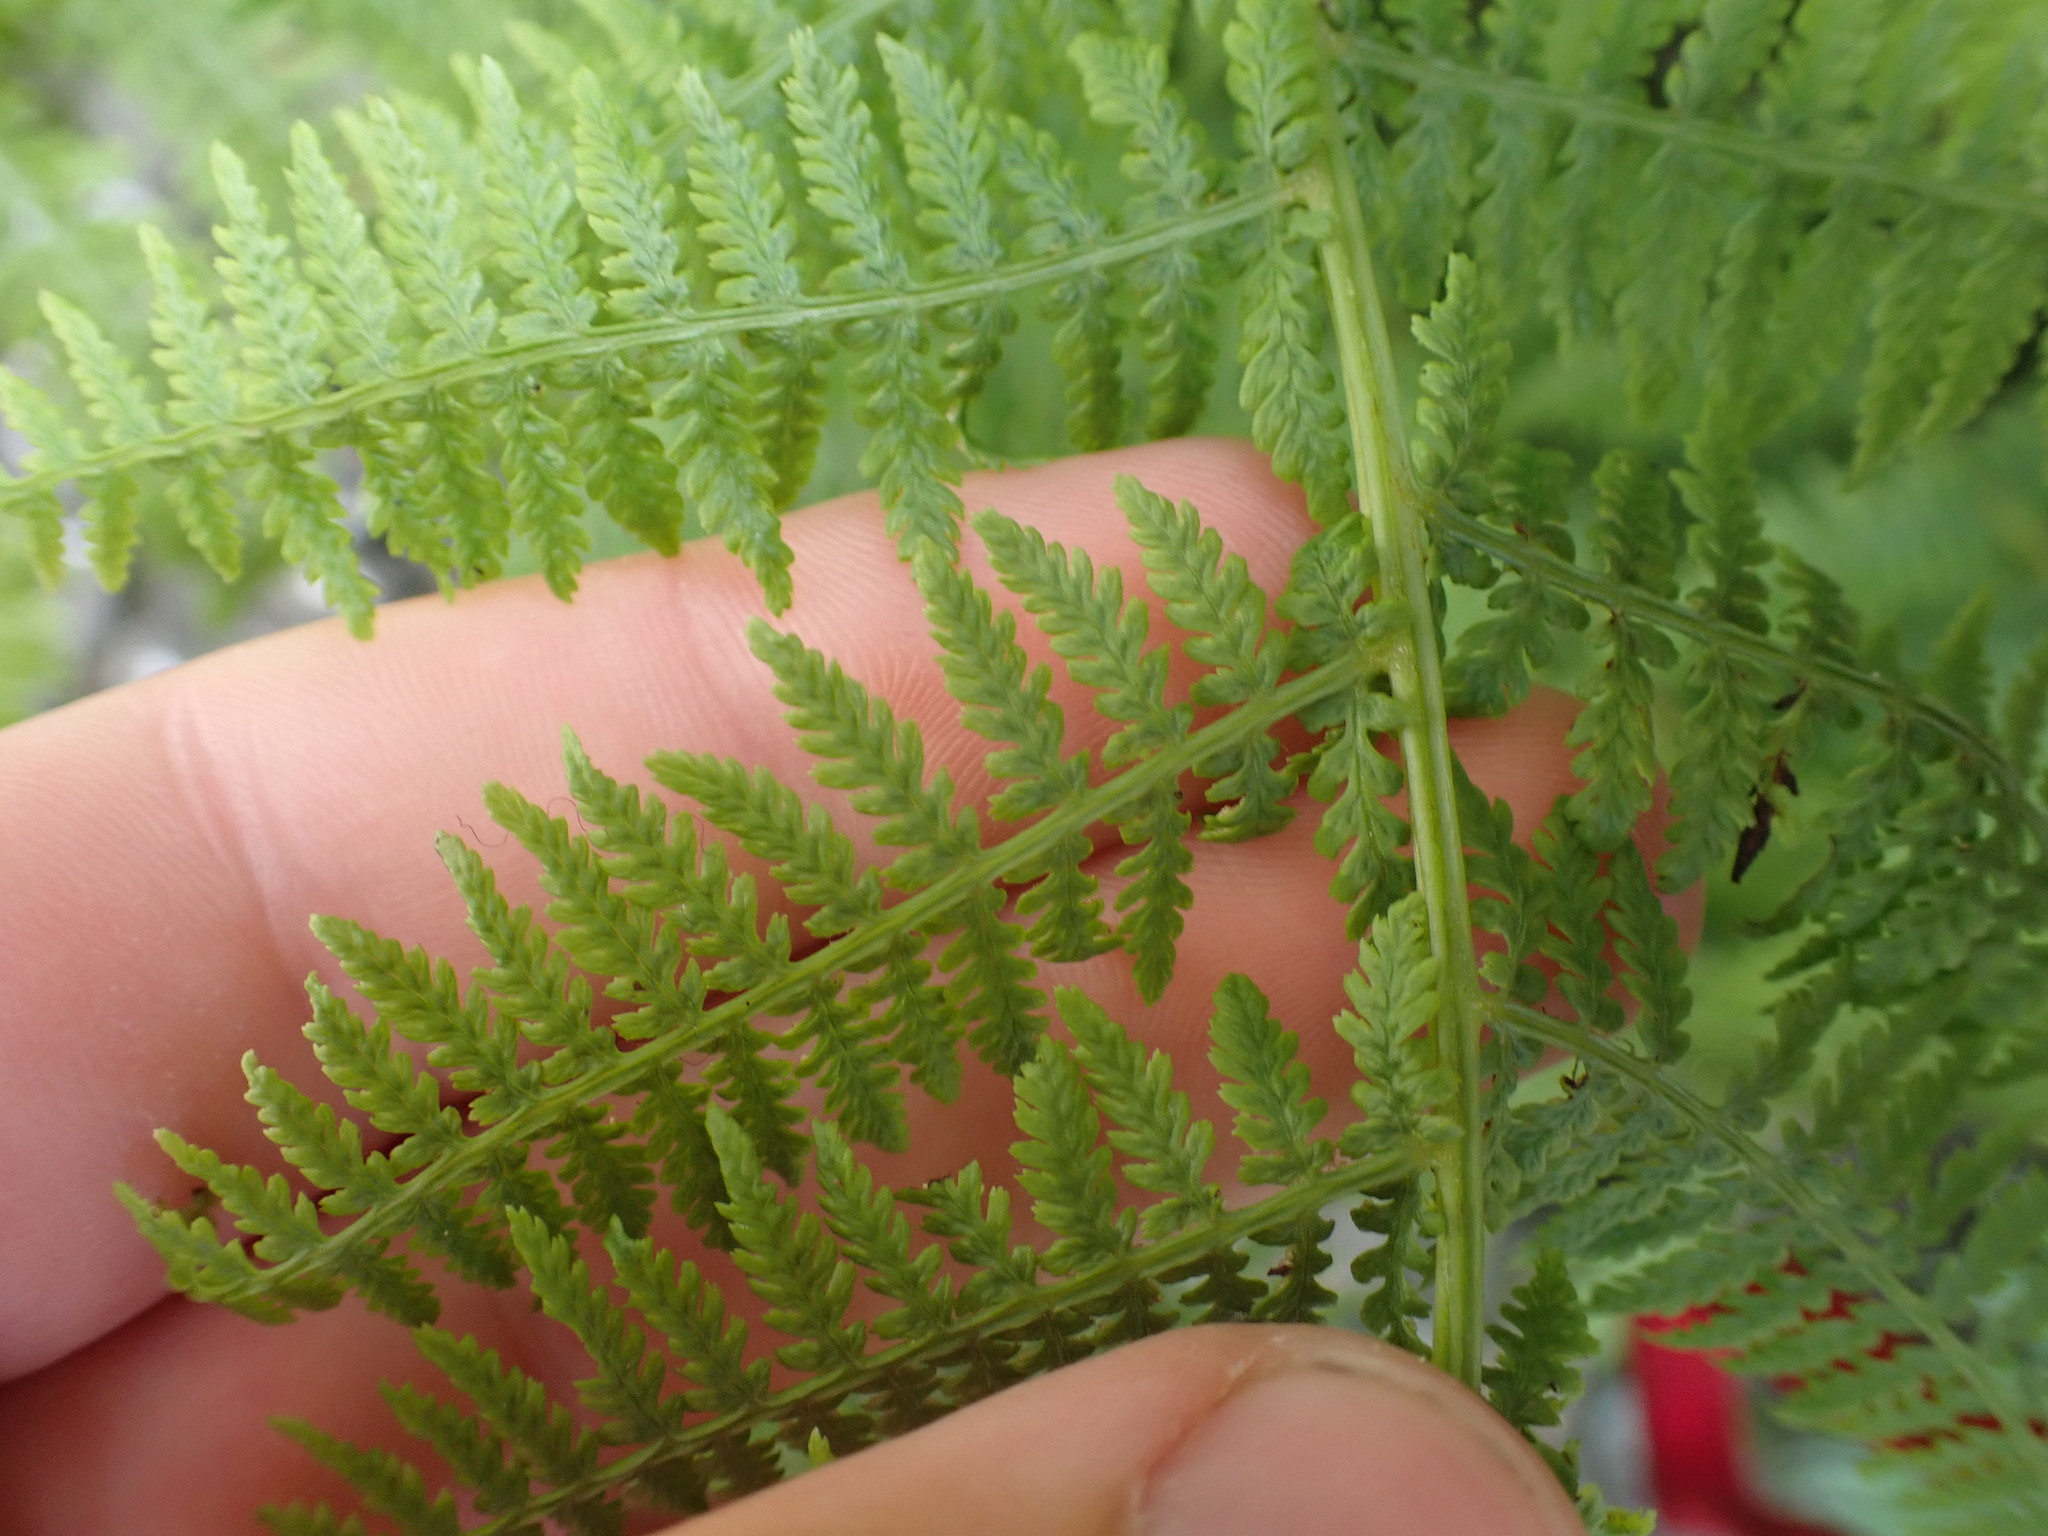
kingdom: Plantae
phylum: Tracheophyta
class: Polypodiopsida
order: Polypodiales
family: Athyriaceae
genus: Athyrium
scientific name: Athyrium filix-femina
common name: Lady fern
